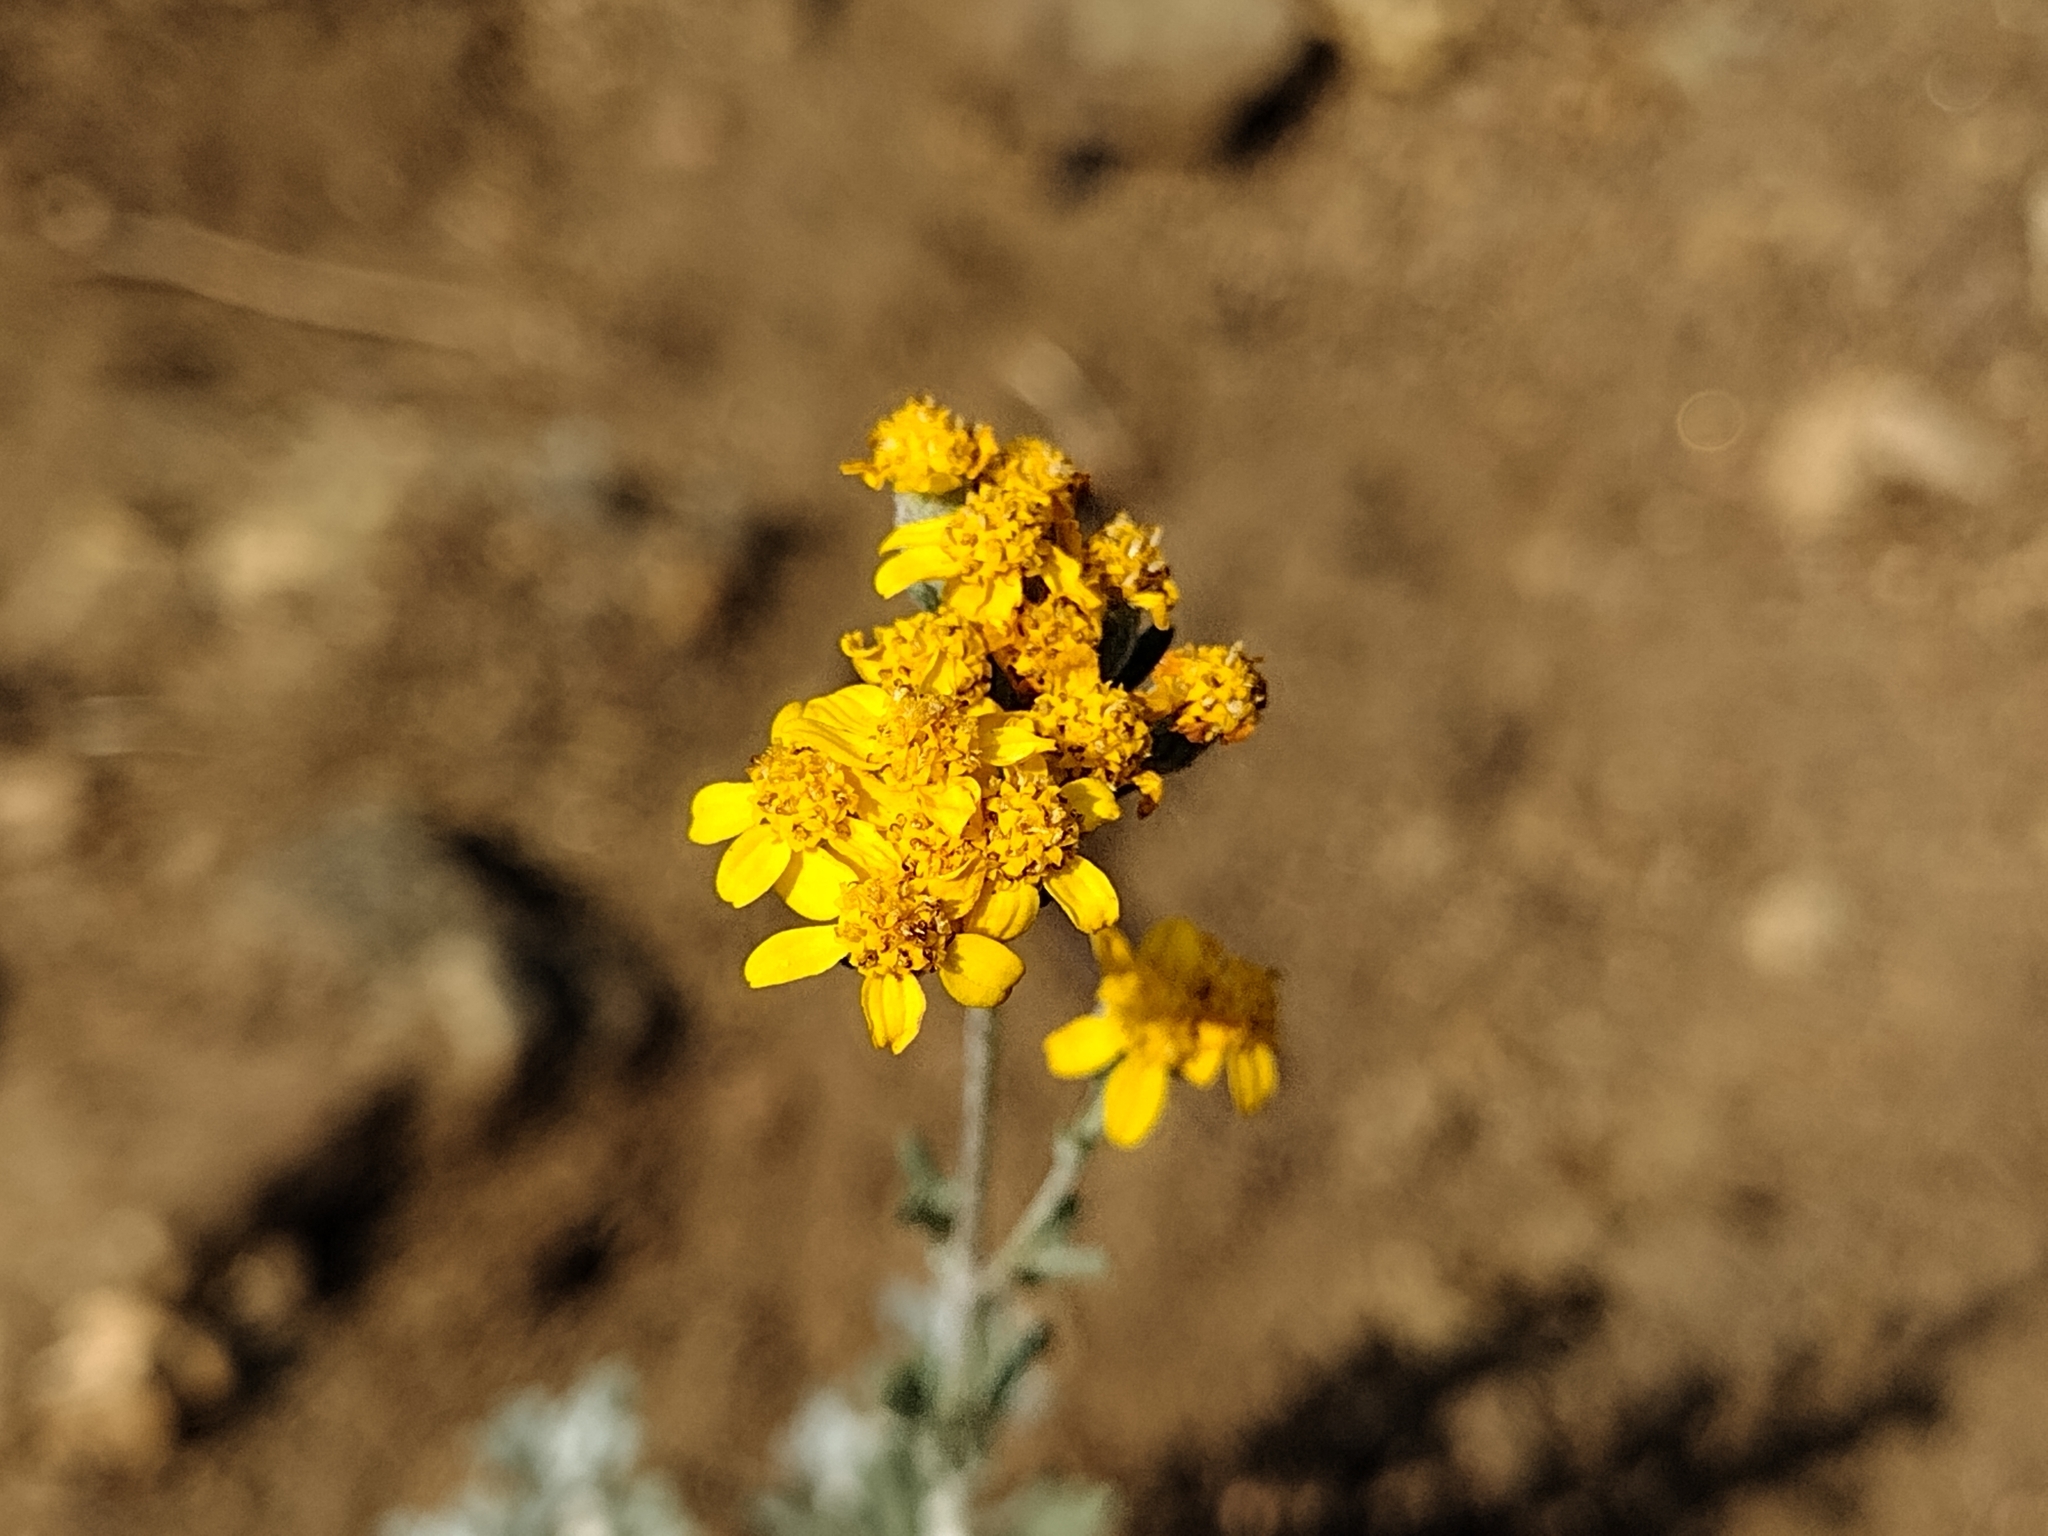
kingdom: Plantae
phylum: Tracheophyta
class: Magnoliopsida
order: Asterales
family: Asteraceae
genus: Eriophyllum
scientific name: Eriophyllum confertiflorum
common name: Golden-yarrow
